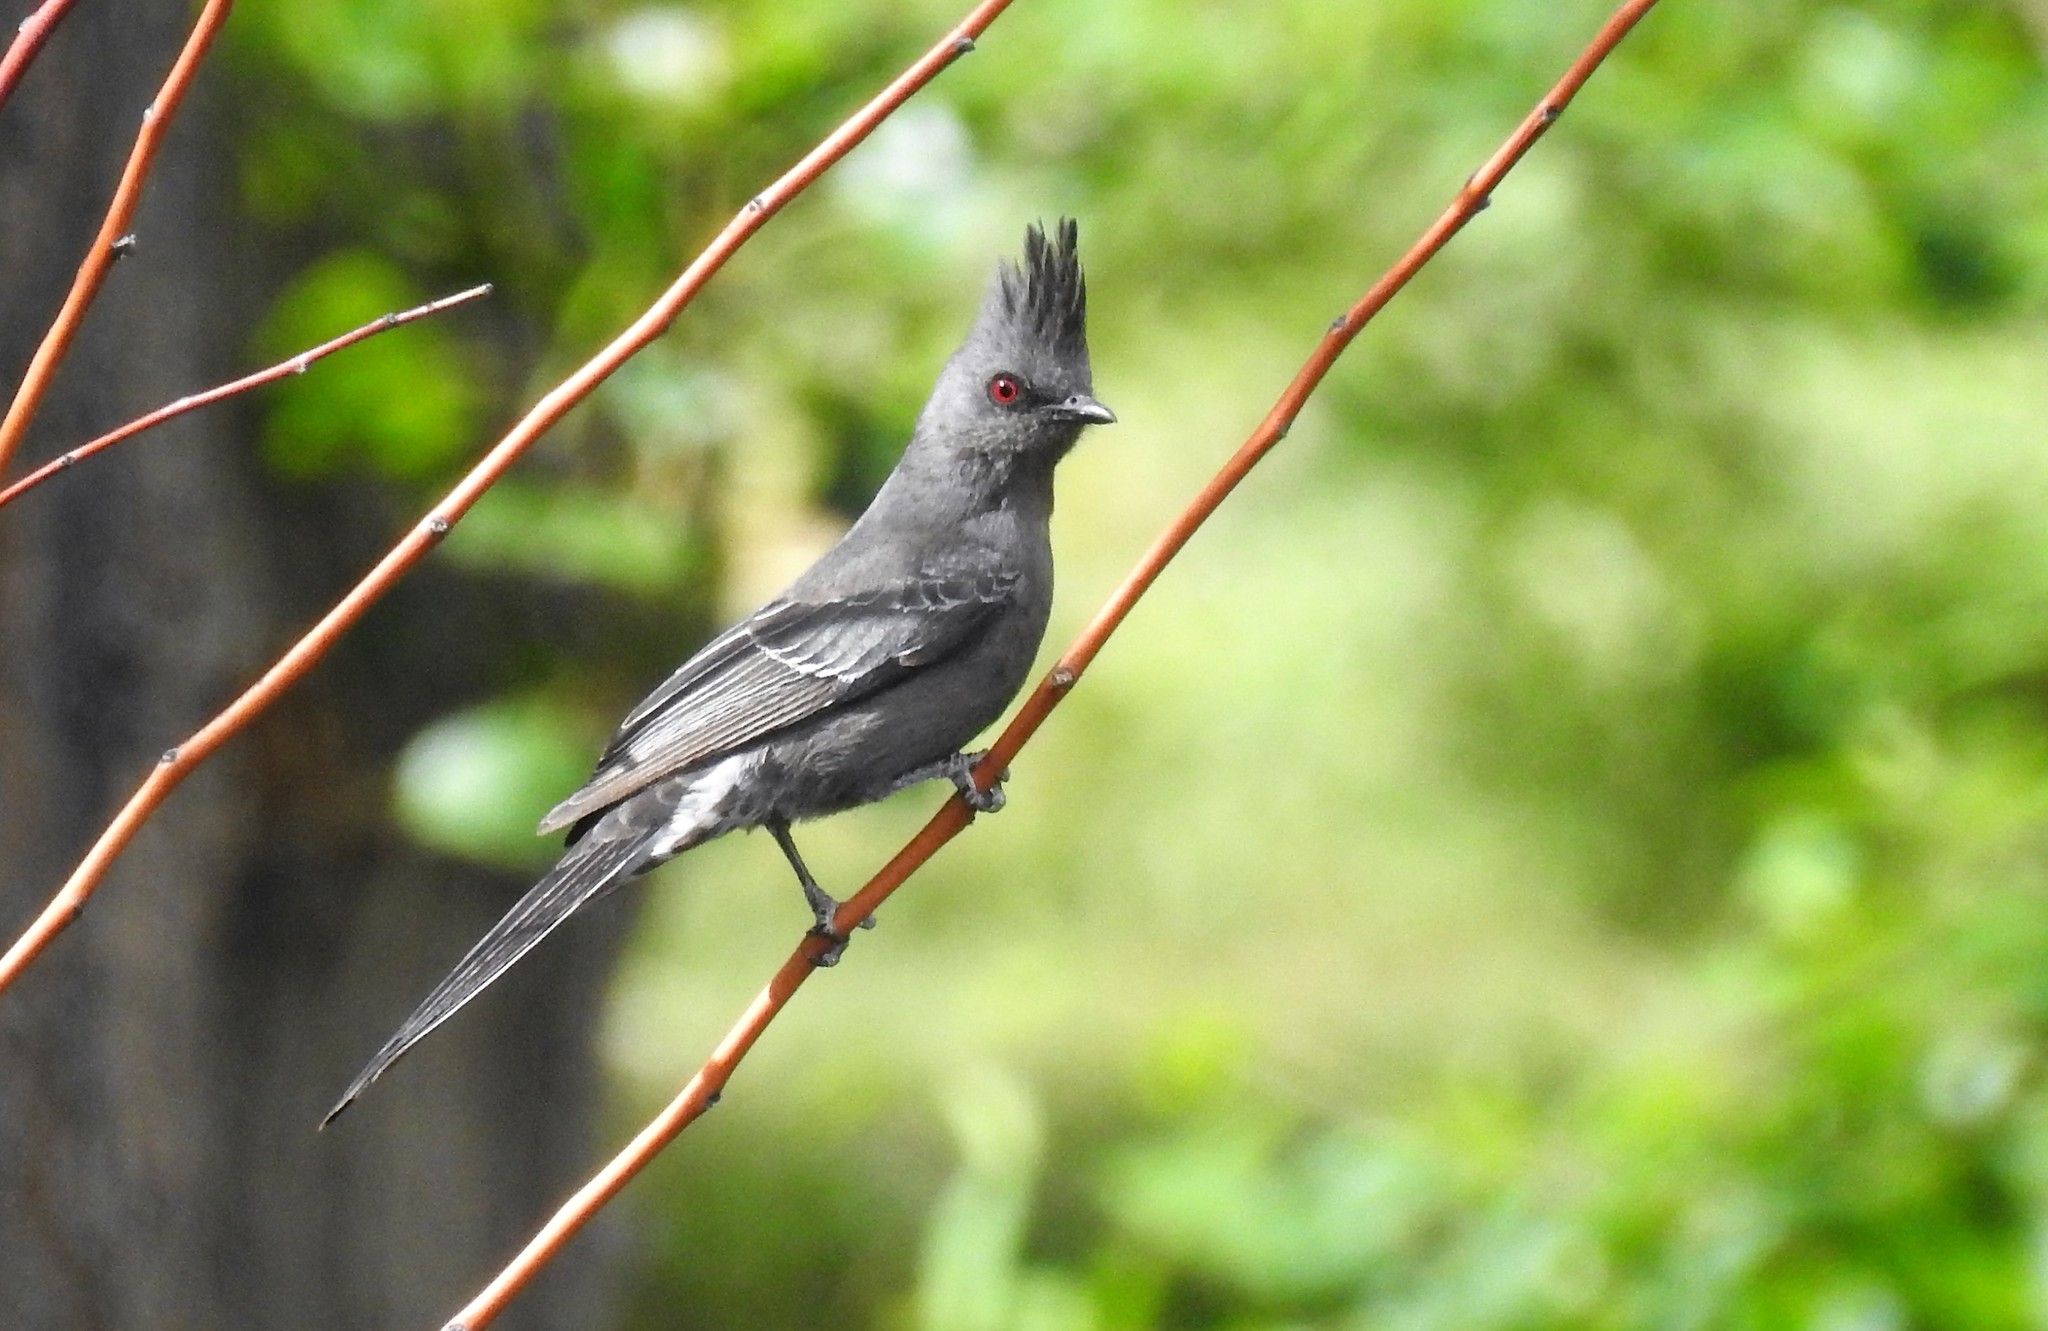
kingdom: Animalia
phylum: Chordata
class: Aves
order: Passeriformes
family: Ptilogonatidae
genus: Phainopepla
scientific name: Phainopepla nitens
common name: Phainopepla
